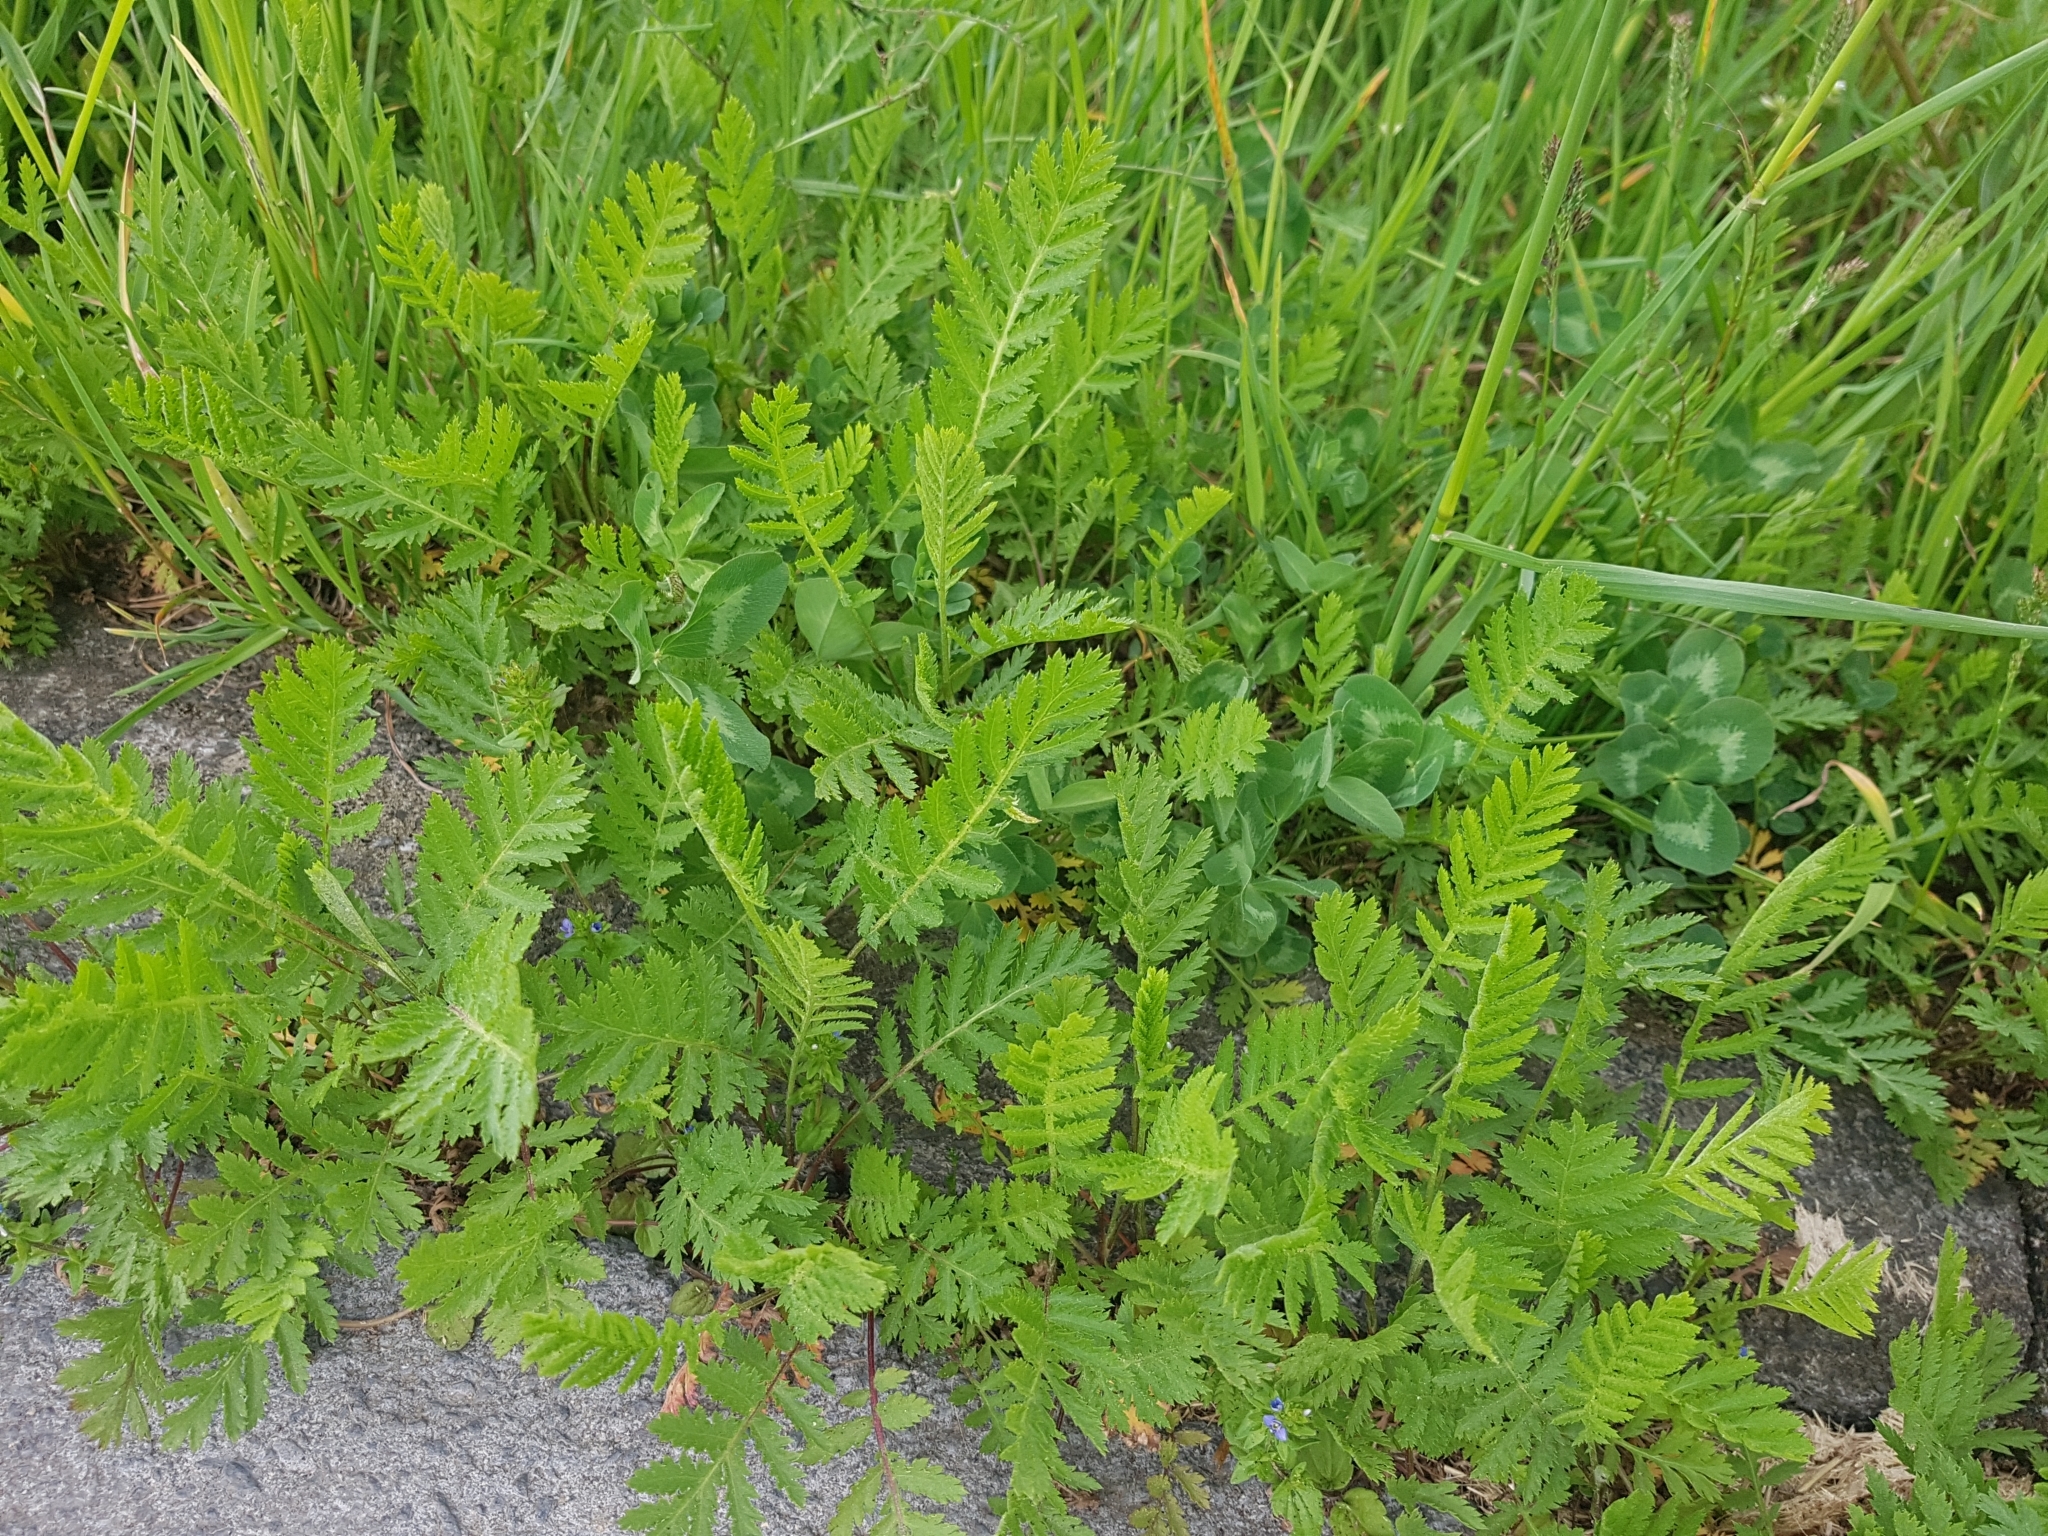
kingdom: Plantae
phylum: Tracheophyta
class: Magnoliopsida
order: Asterales
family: Asteraceae
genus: Tanacetum
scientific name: Tanacetum vulgare
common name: Common tansy
